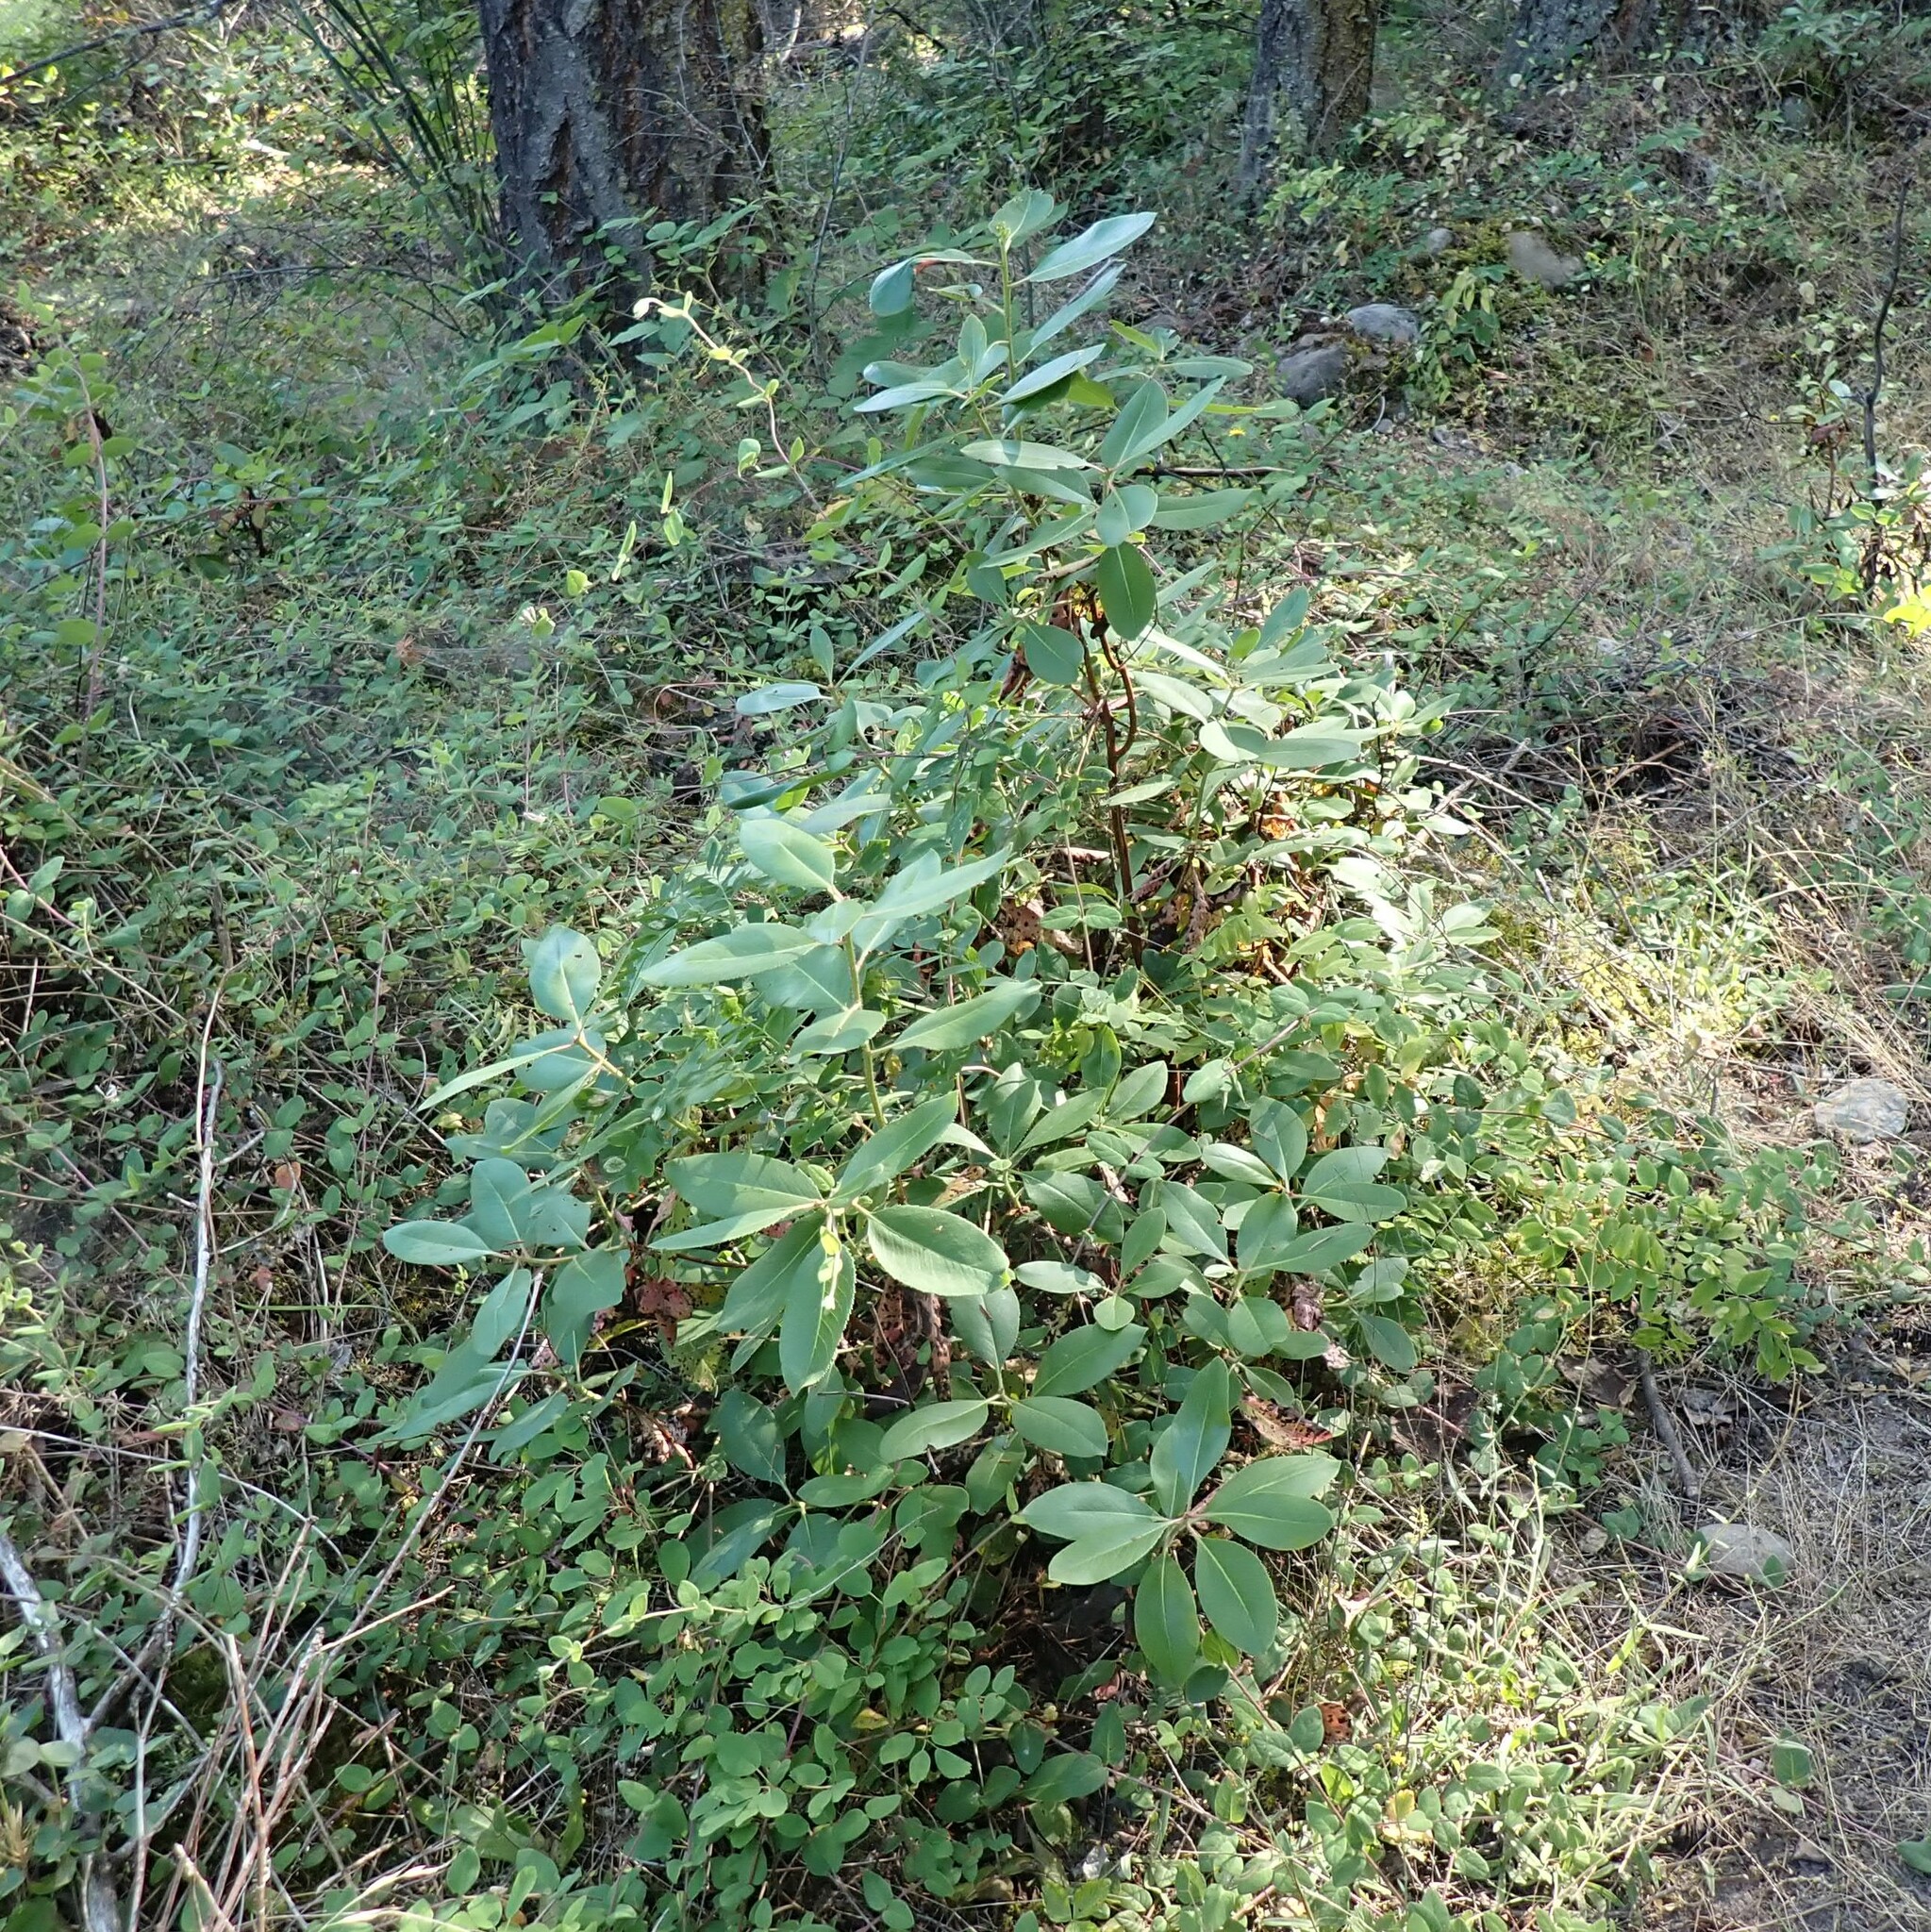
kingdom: Plantae
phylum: Tracheophyta
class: Magnoliopsida
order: Ericales
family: Ericaceae
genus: Arbutus
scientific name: Arbutus menziesii
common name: Pacific madrone
